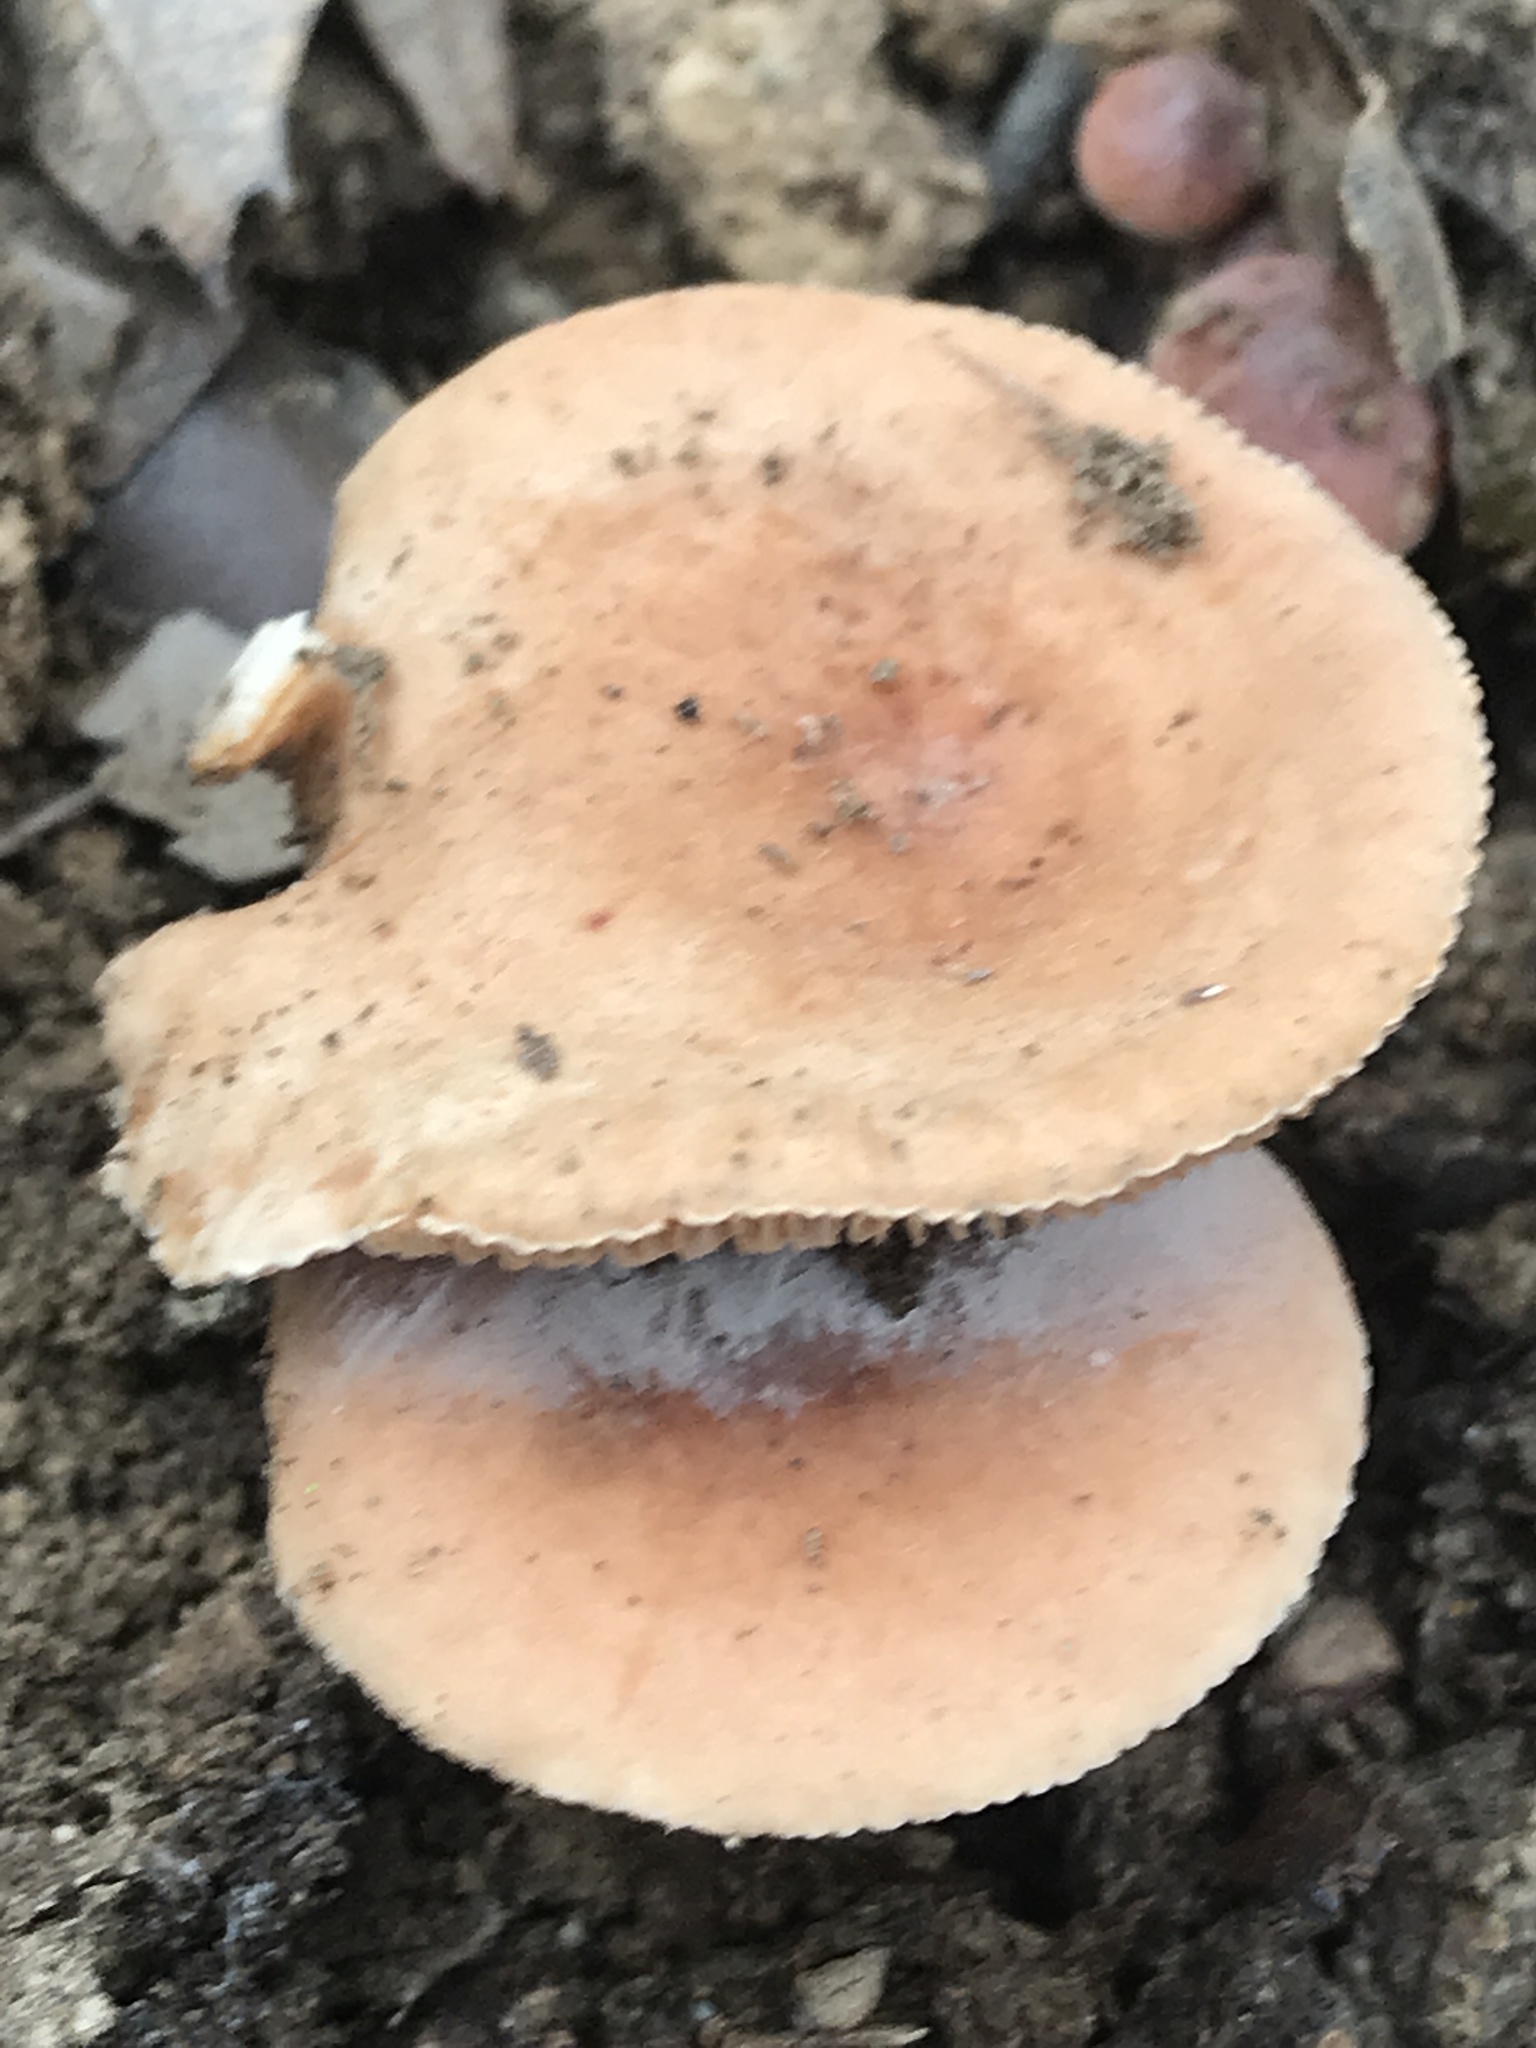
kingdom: Fungi
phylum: Basidiomycota
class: Agaricomycetes
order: Russulales
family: Russulaceae
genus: Lactarius
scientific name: Lactarius hygrophoroides
